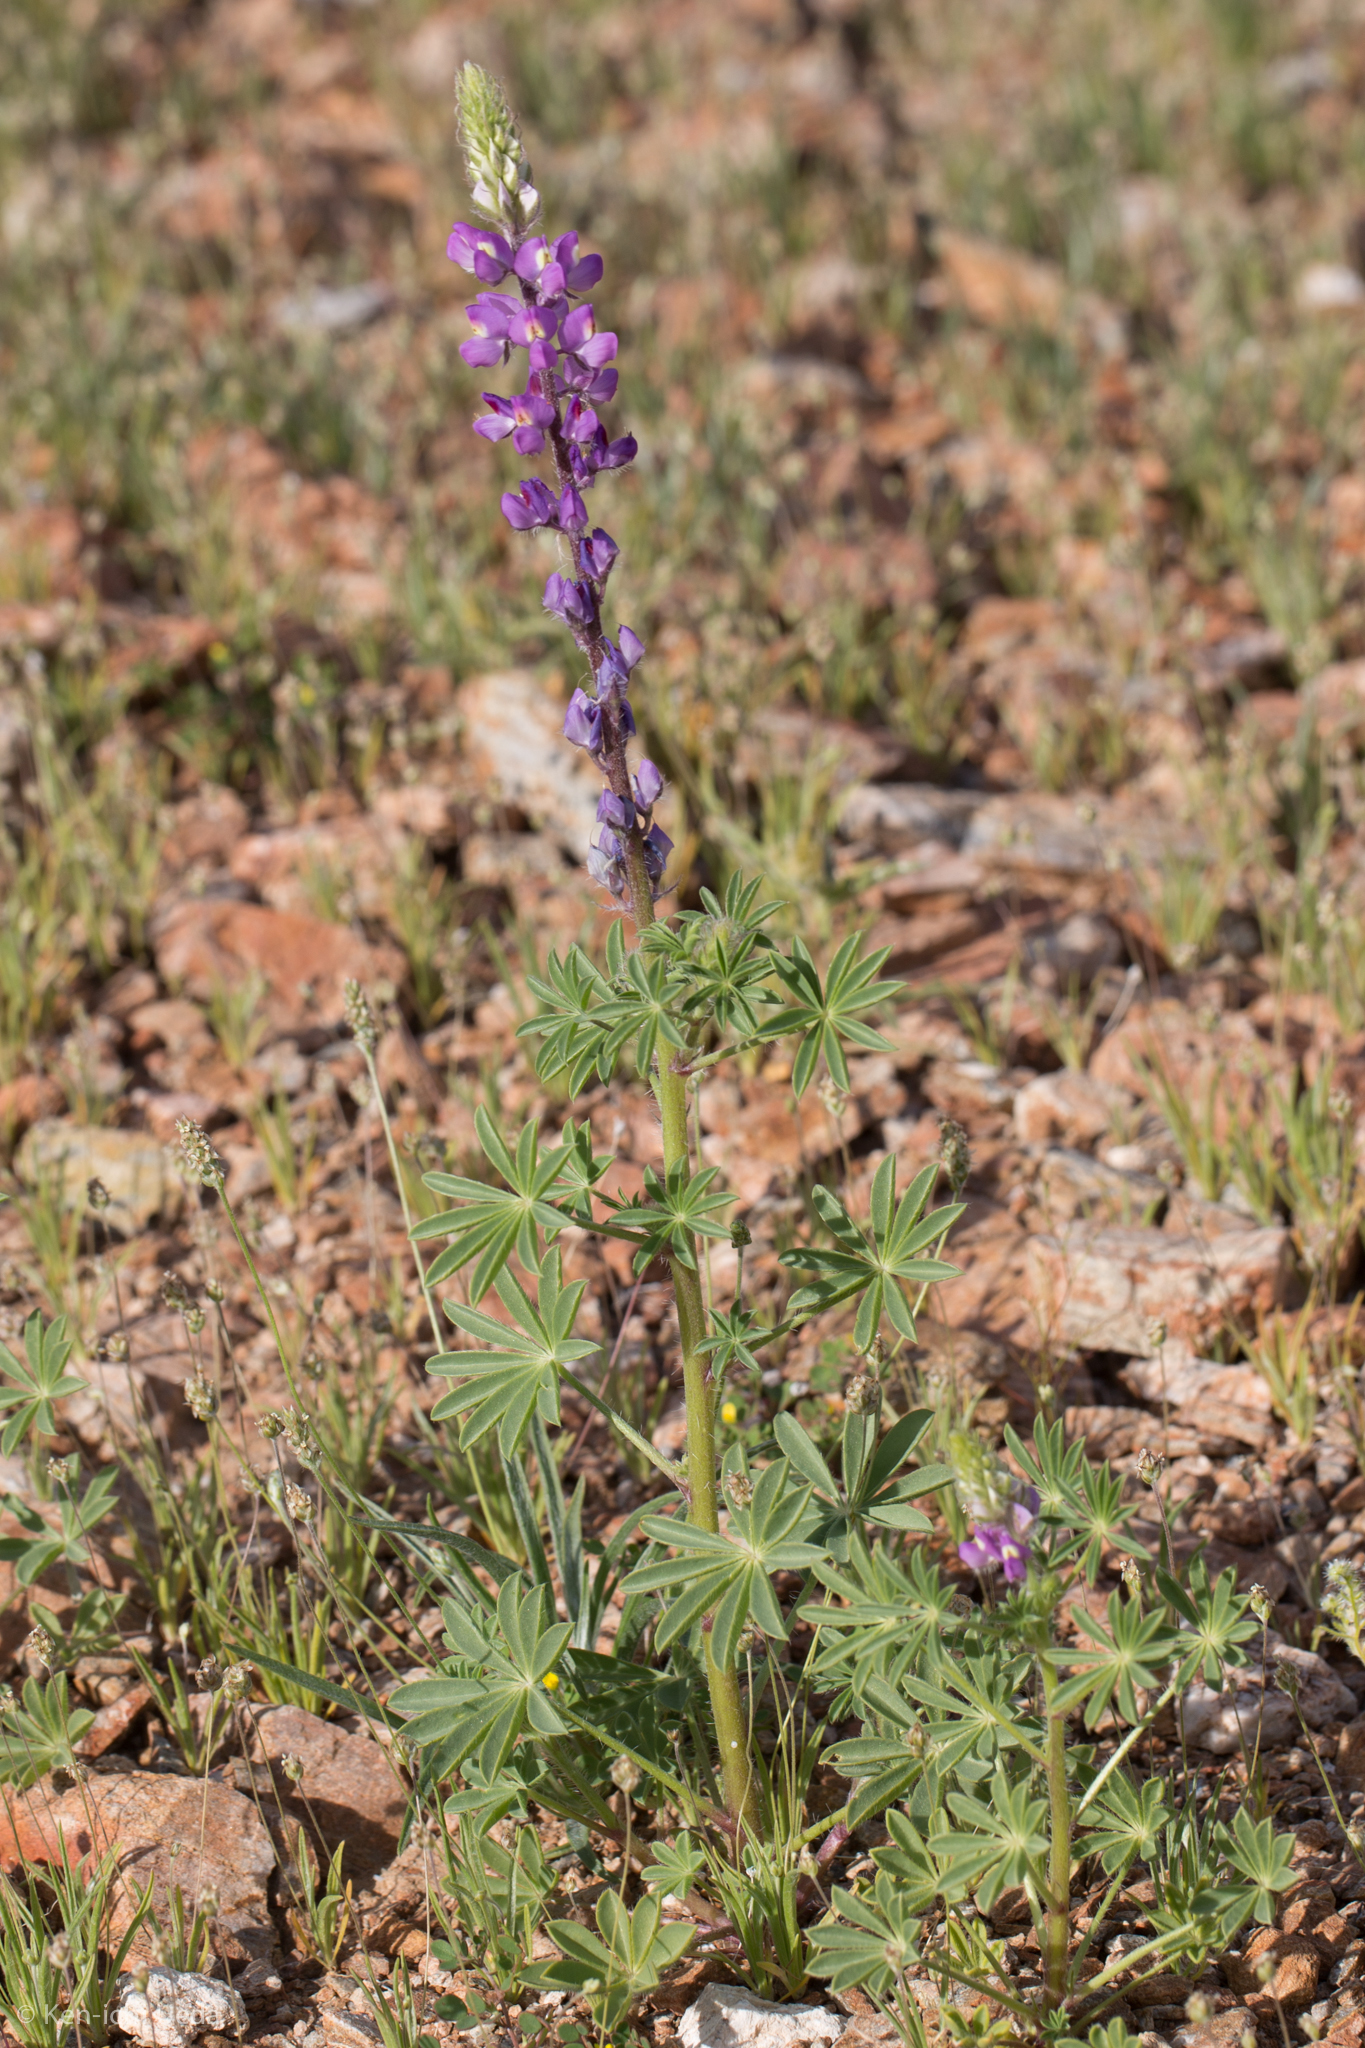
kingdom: Plantae
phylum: Tracheophyta
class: Magnoliopsida
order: Fabales
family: Fabaceae
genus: Lupinus
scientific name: Lupinus arizonicus
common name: Arizona lupine
